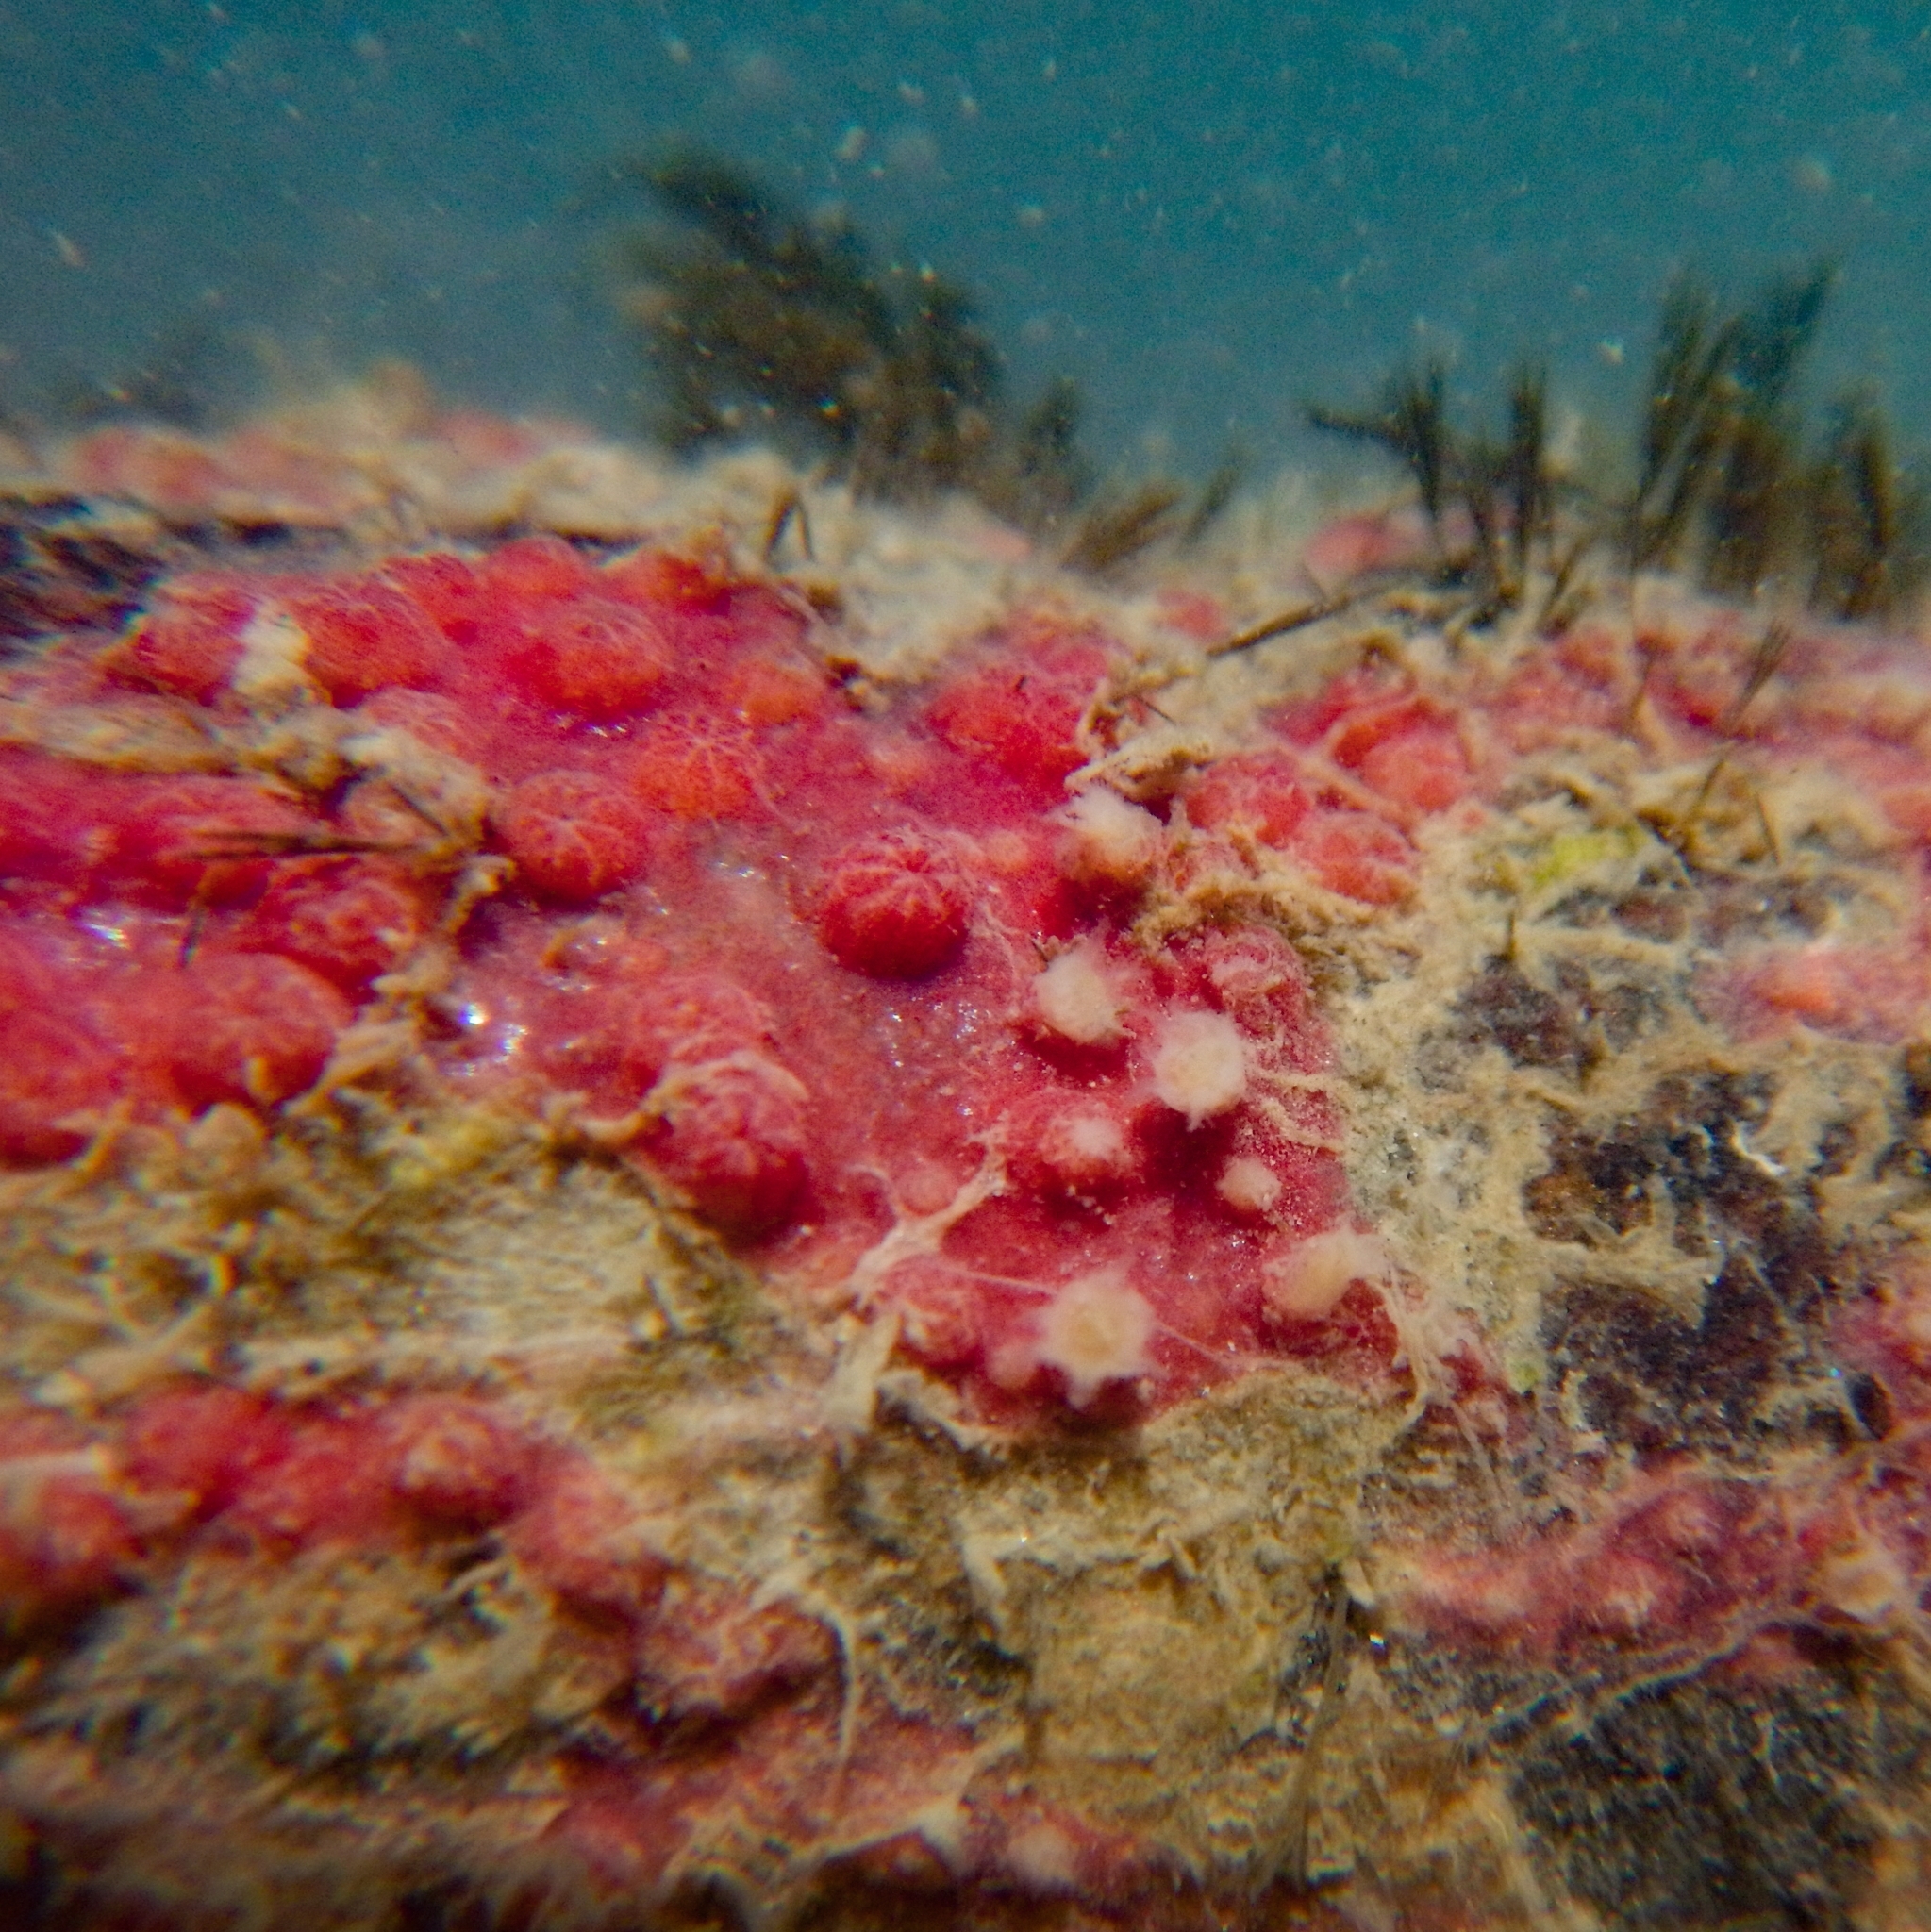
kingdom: Animalia
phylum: Cnidaria
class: Anthozoa
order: Scleralcyonacea
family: Spongiodermidae
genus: Callipodium
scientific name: Callipodium rubens
